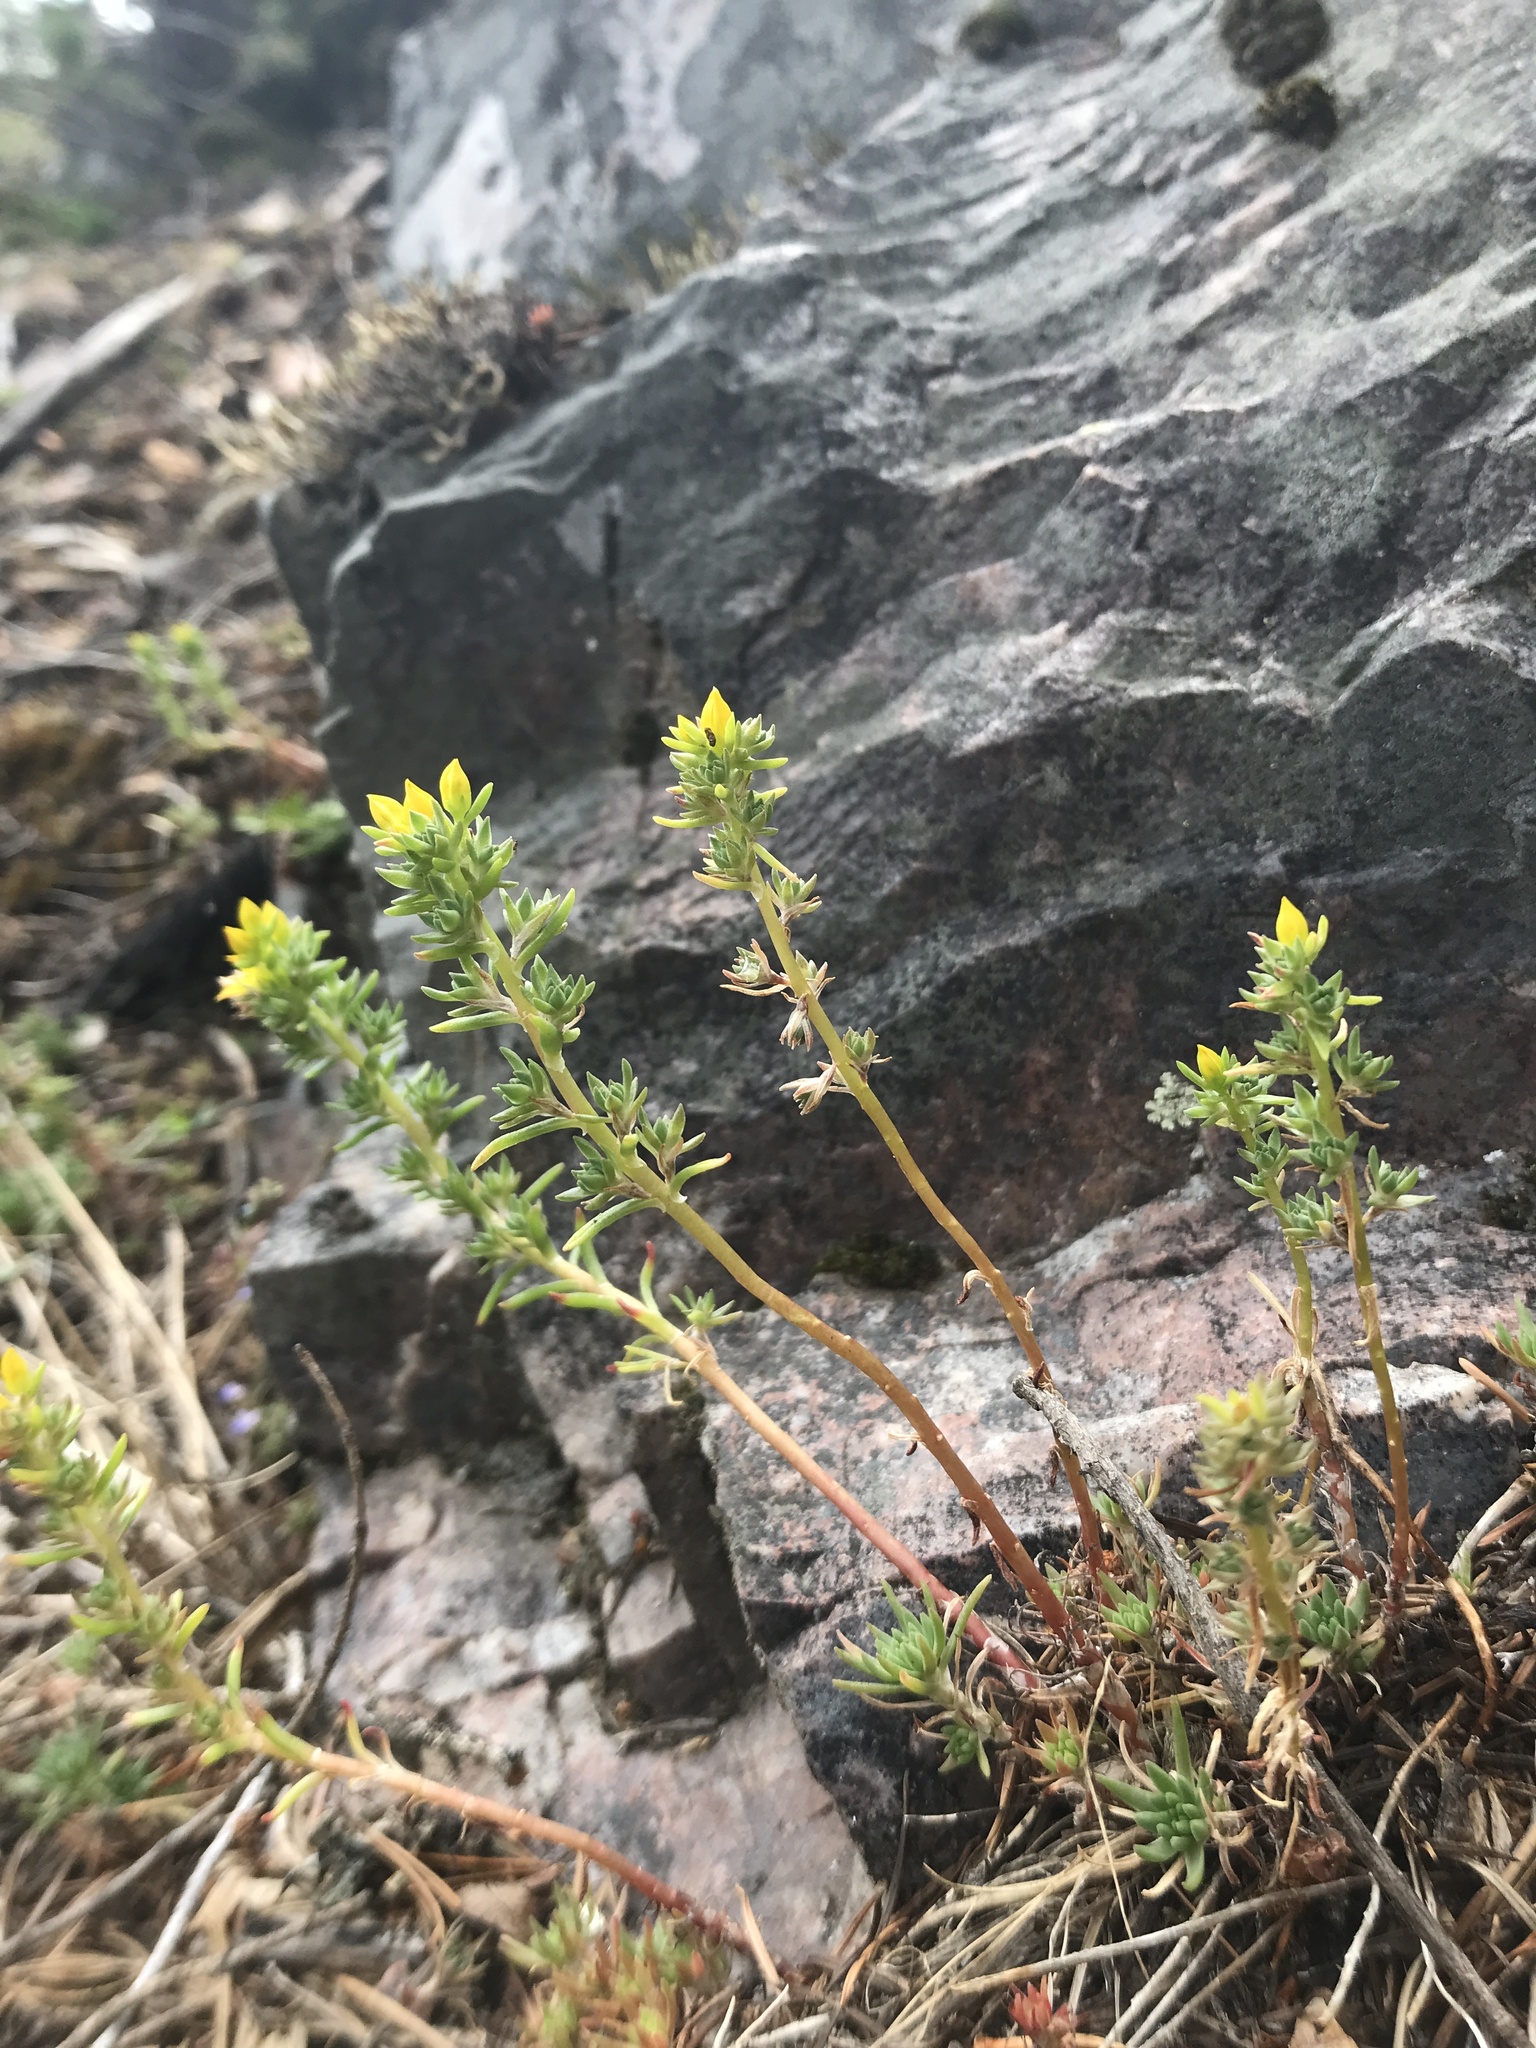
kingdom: Plantae
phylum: Tracheophyta
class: Magnoliopsida
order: Saxifragales
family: Crassulaceae
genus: Sedum
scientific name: Sedum stenopetalum
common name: Narrow-petaled stonecrop
